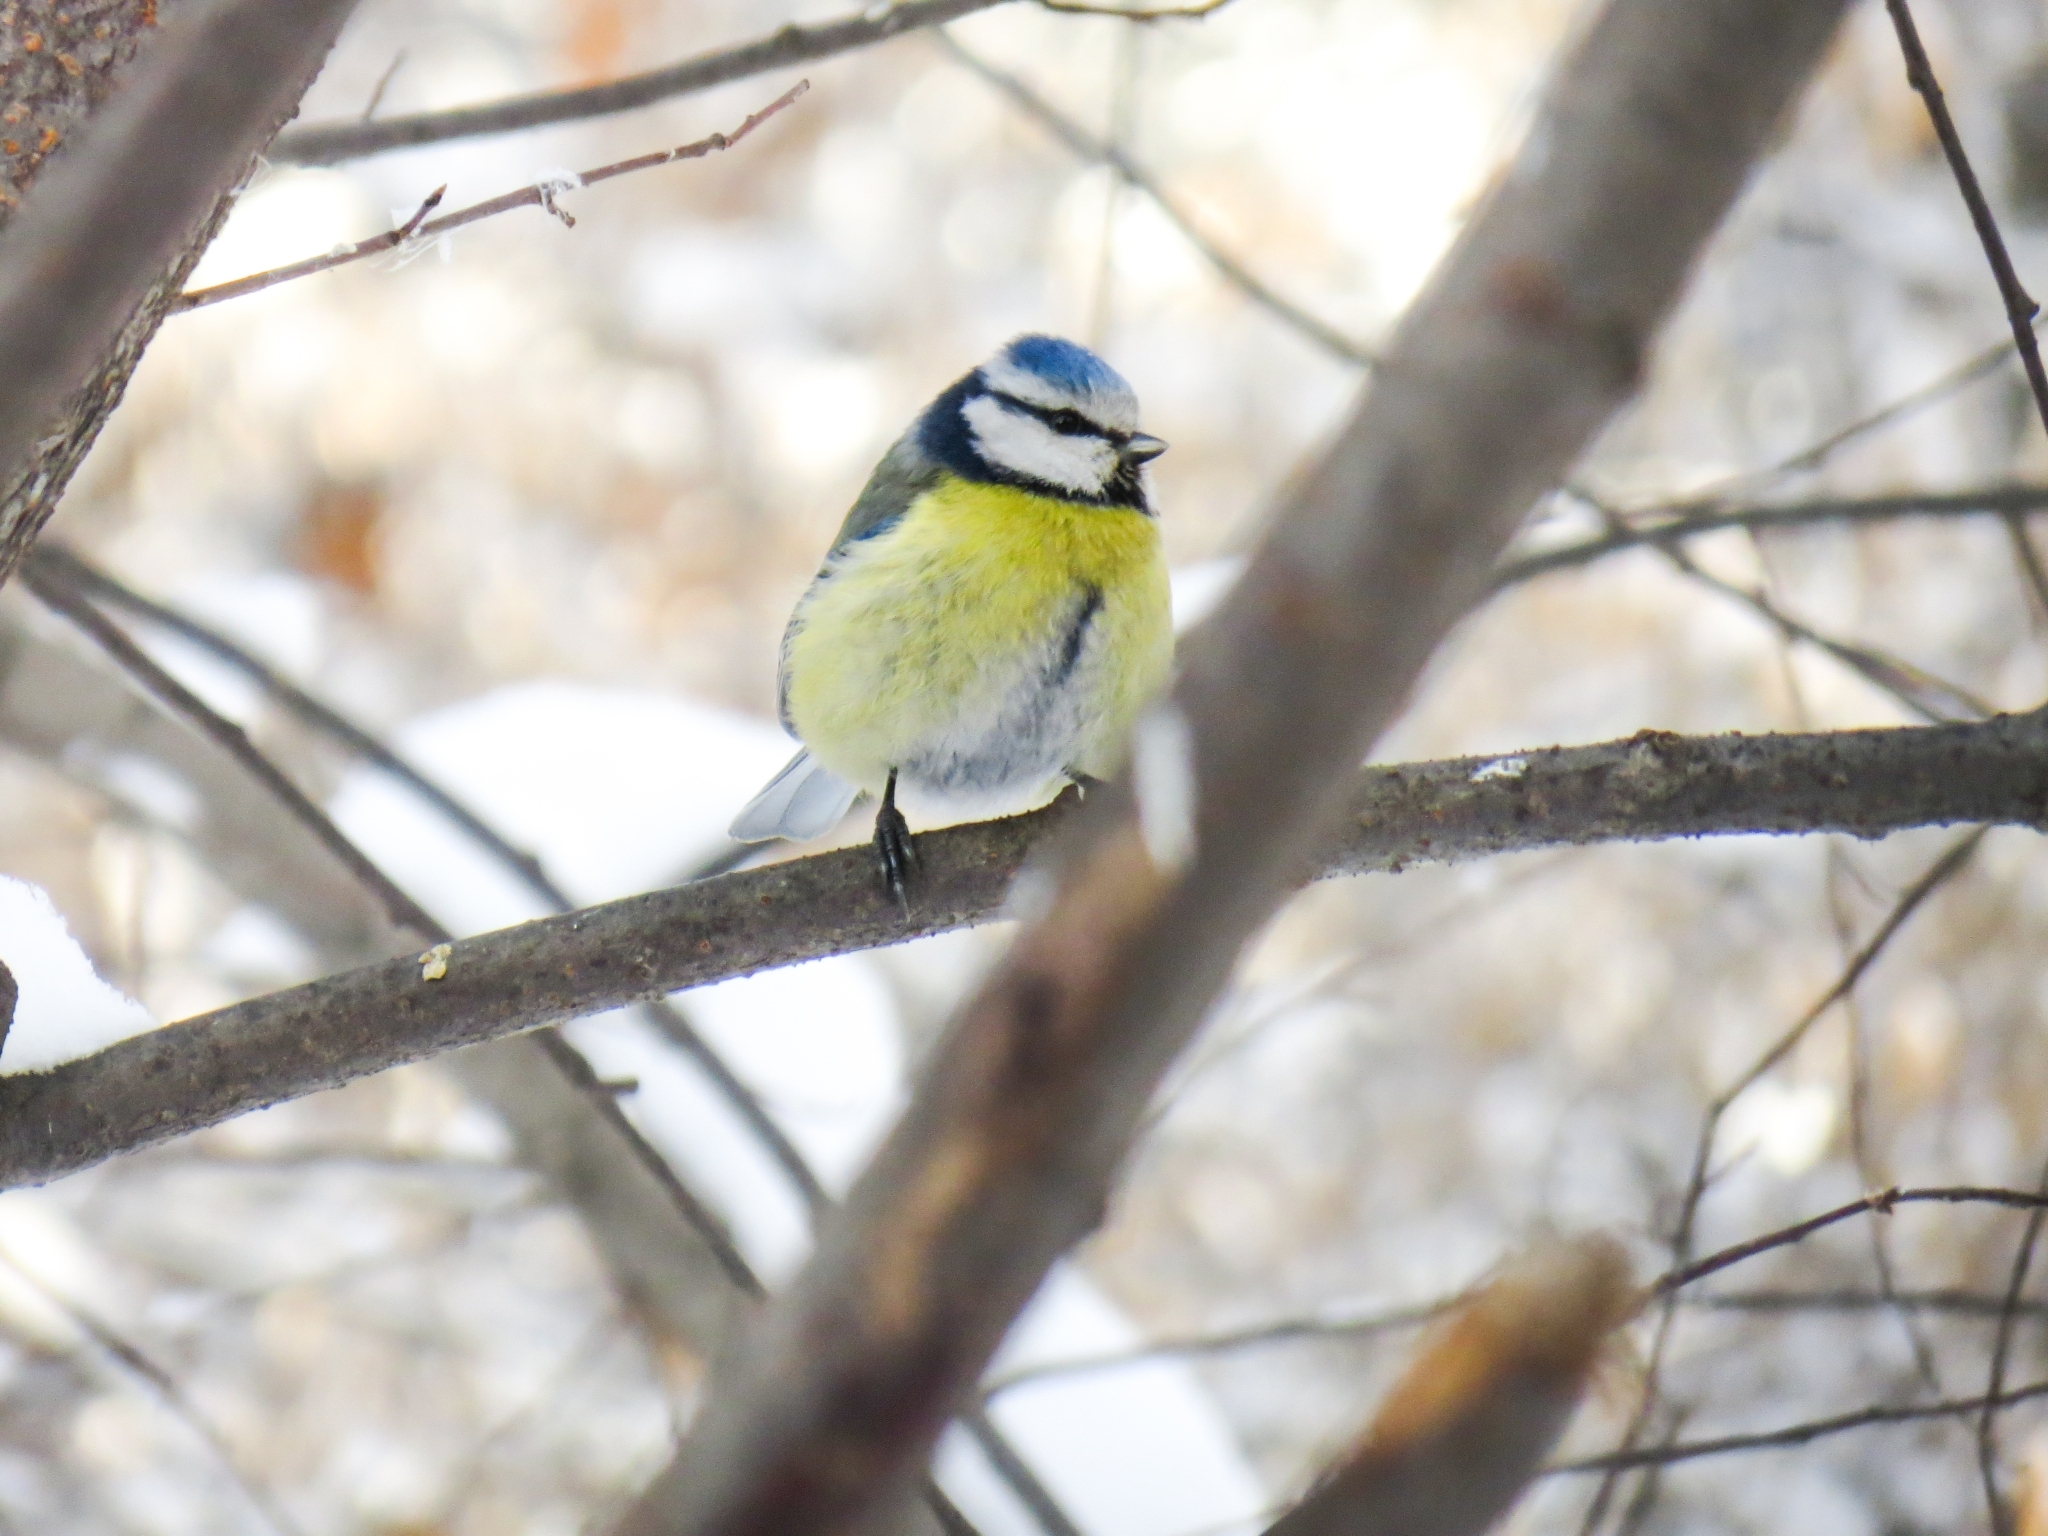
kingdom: Animalia
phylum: Chordata
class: Aves
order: Passeriformes
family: Paridae
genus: Cyanistes
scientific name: Cyanistes caeruleus
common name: Eurasian blue tit
